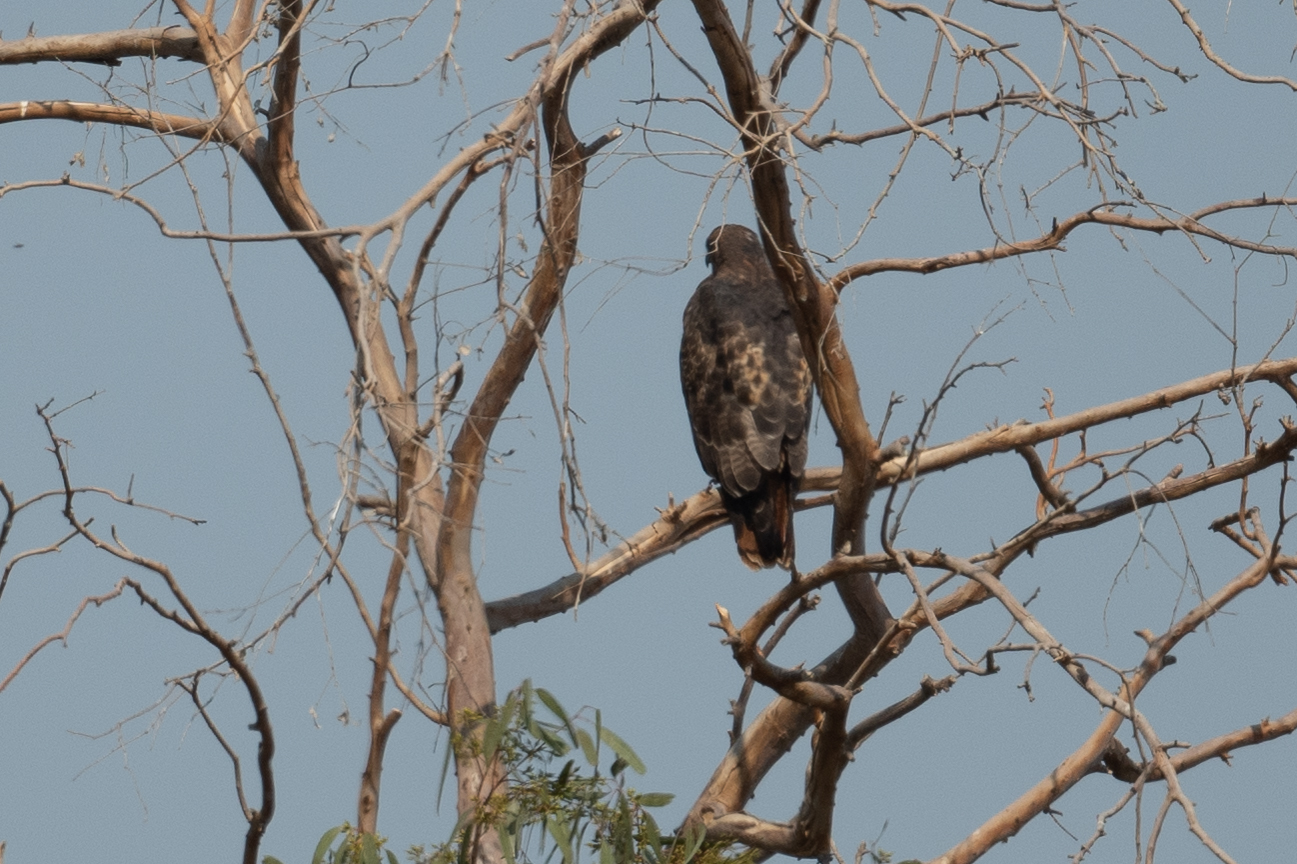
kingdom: Animalia
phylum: Chordata
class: Aves
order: Accipitriformes
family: Accipitridae
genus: Buteo
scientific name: Buteo jamaicensis
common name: Red-tailed hawk
